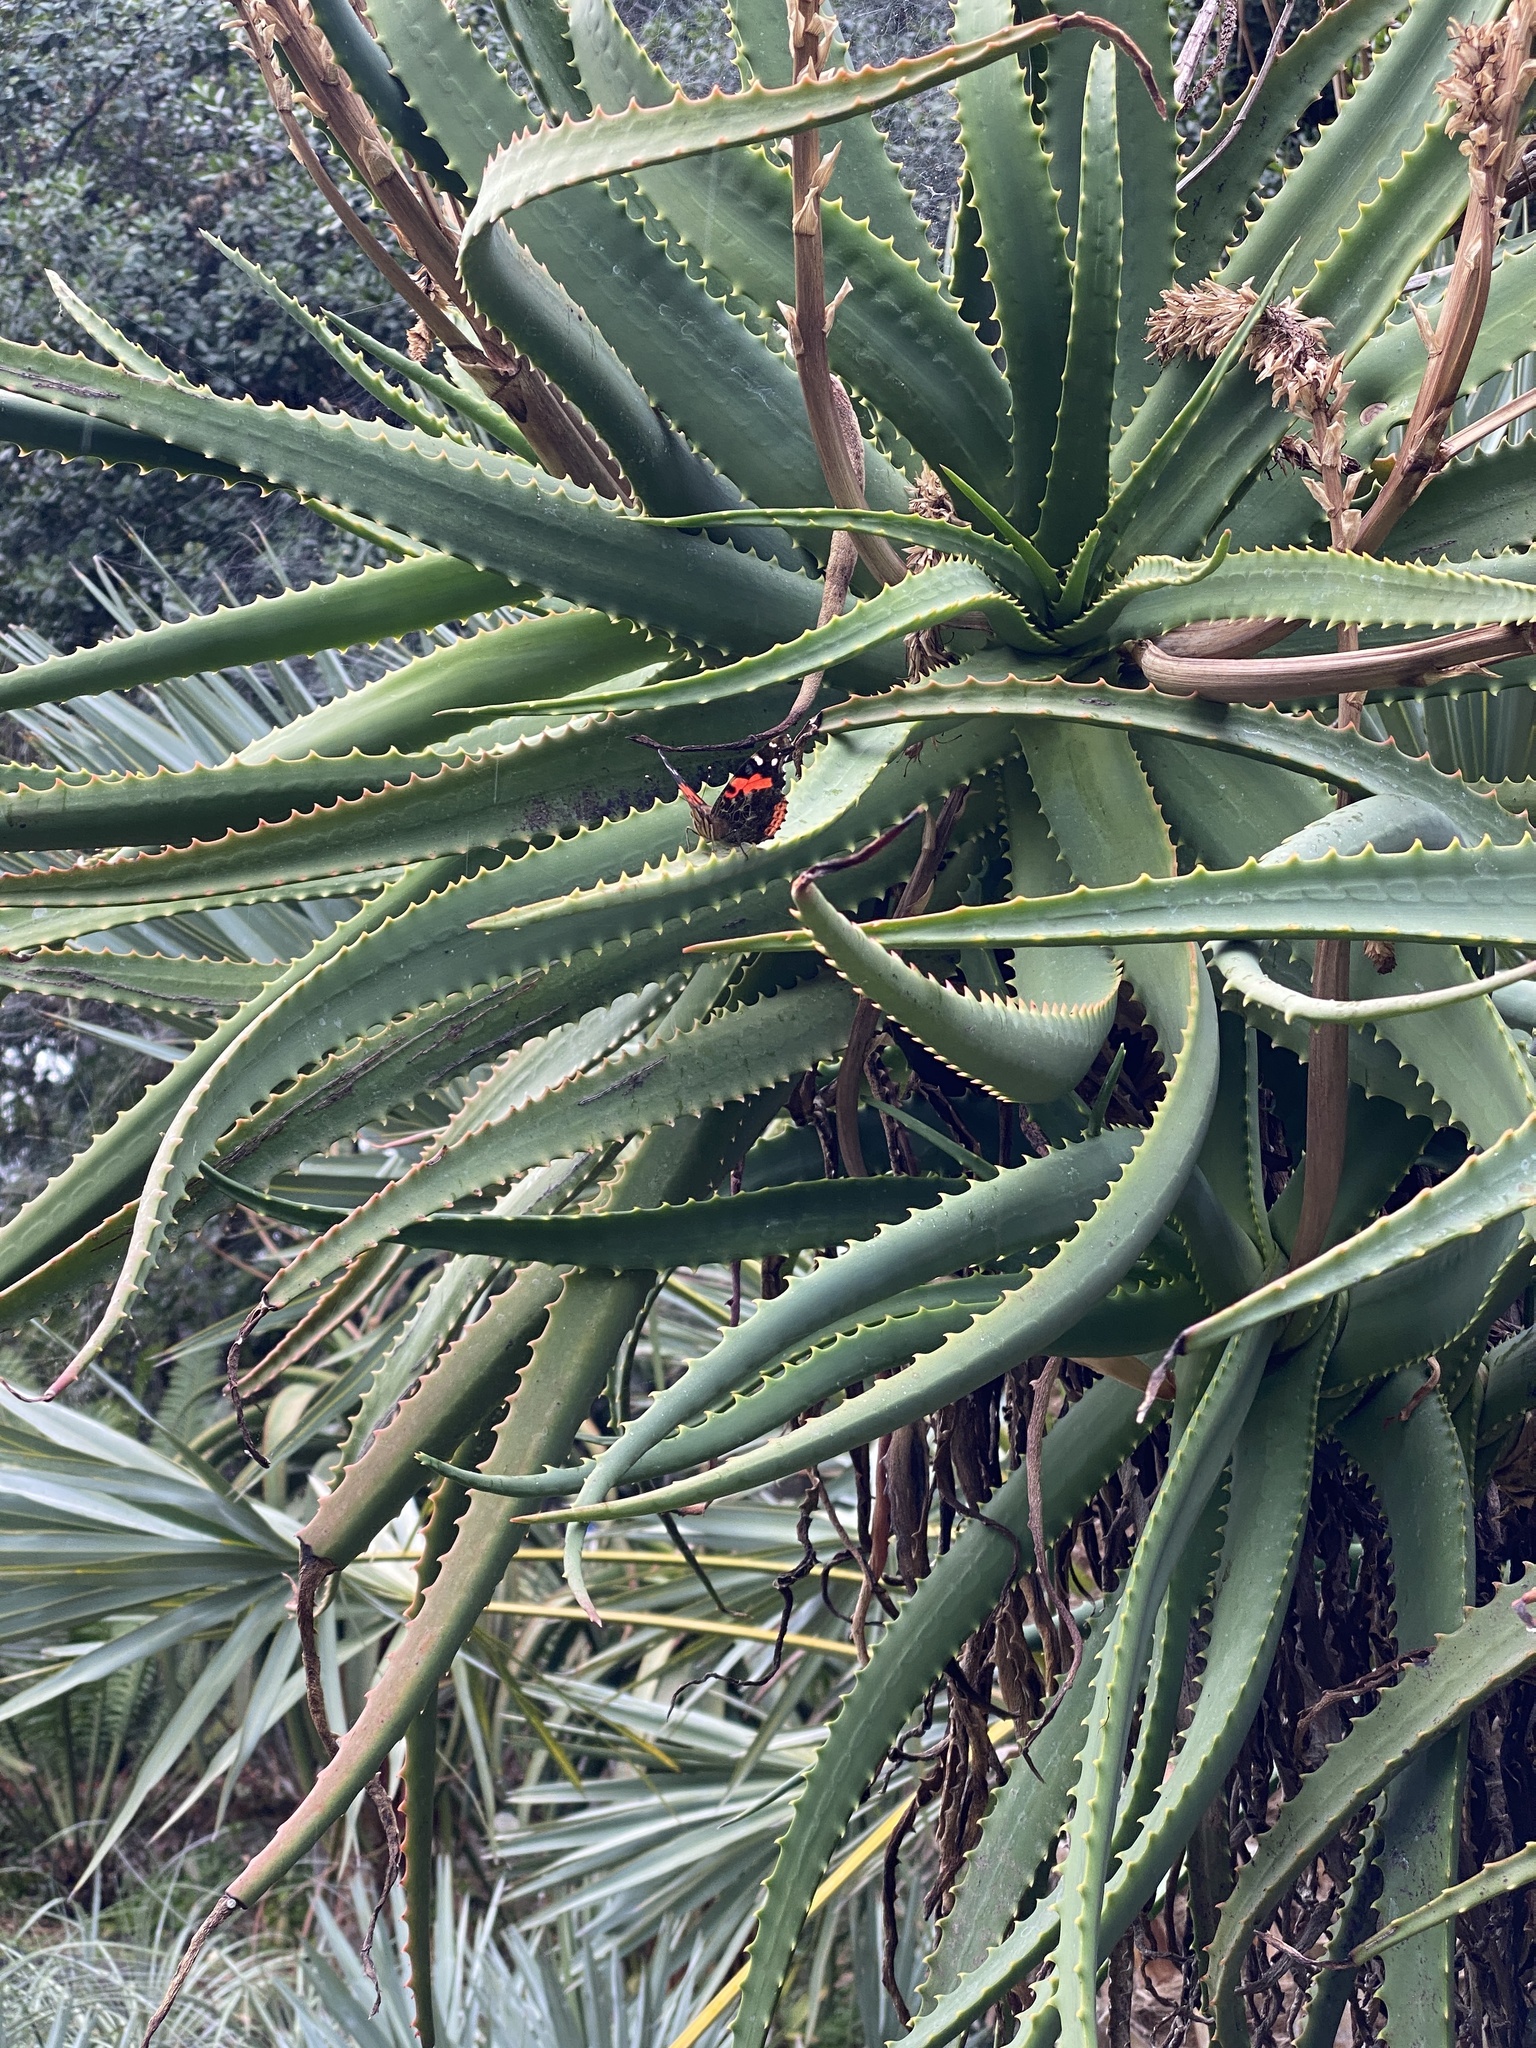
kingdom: Animalia
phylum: Arthropoda
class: Insecta
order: Lepidoptera
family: Nymphalidae
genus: Vanessa
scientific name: Vanessa vulcania
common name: Canary red admiral
